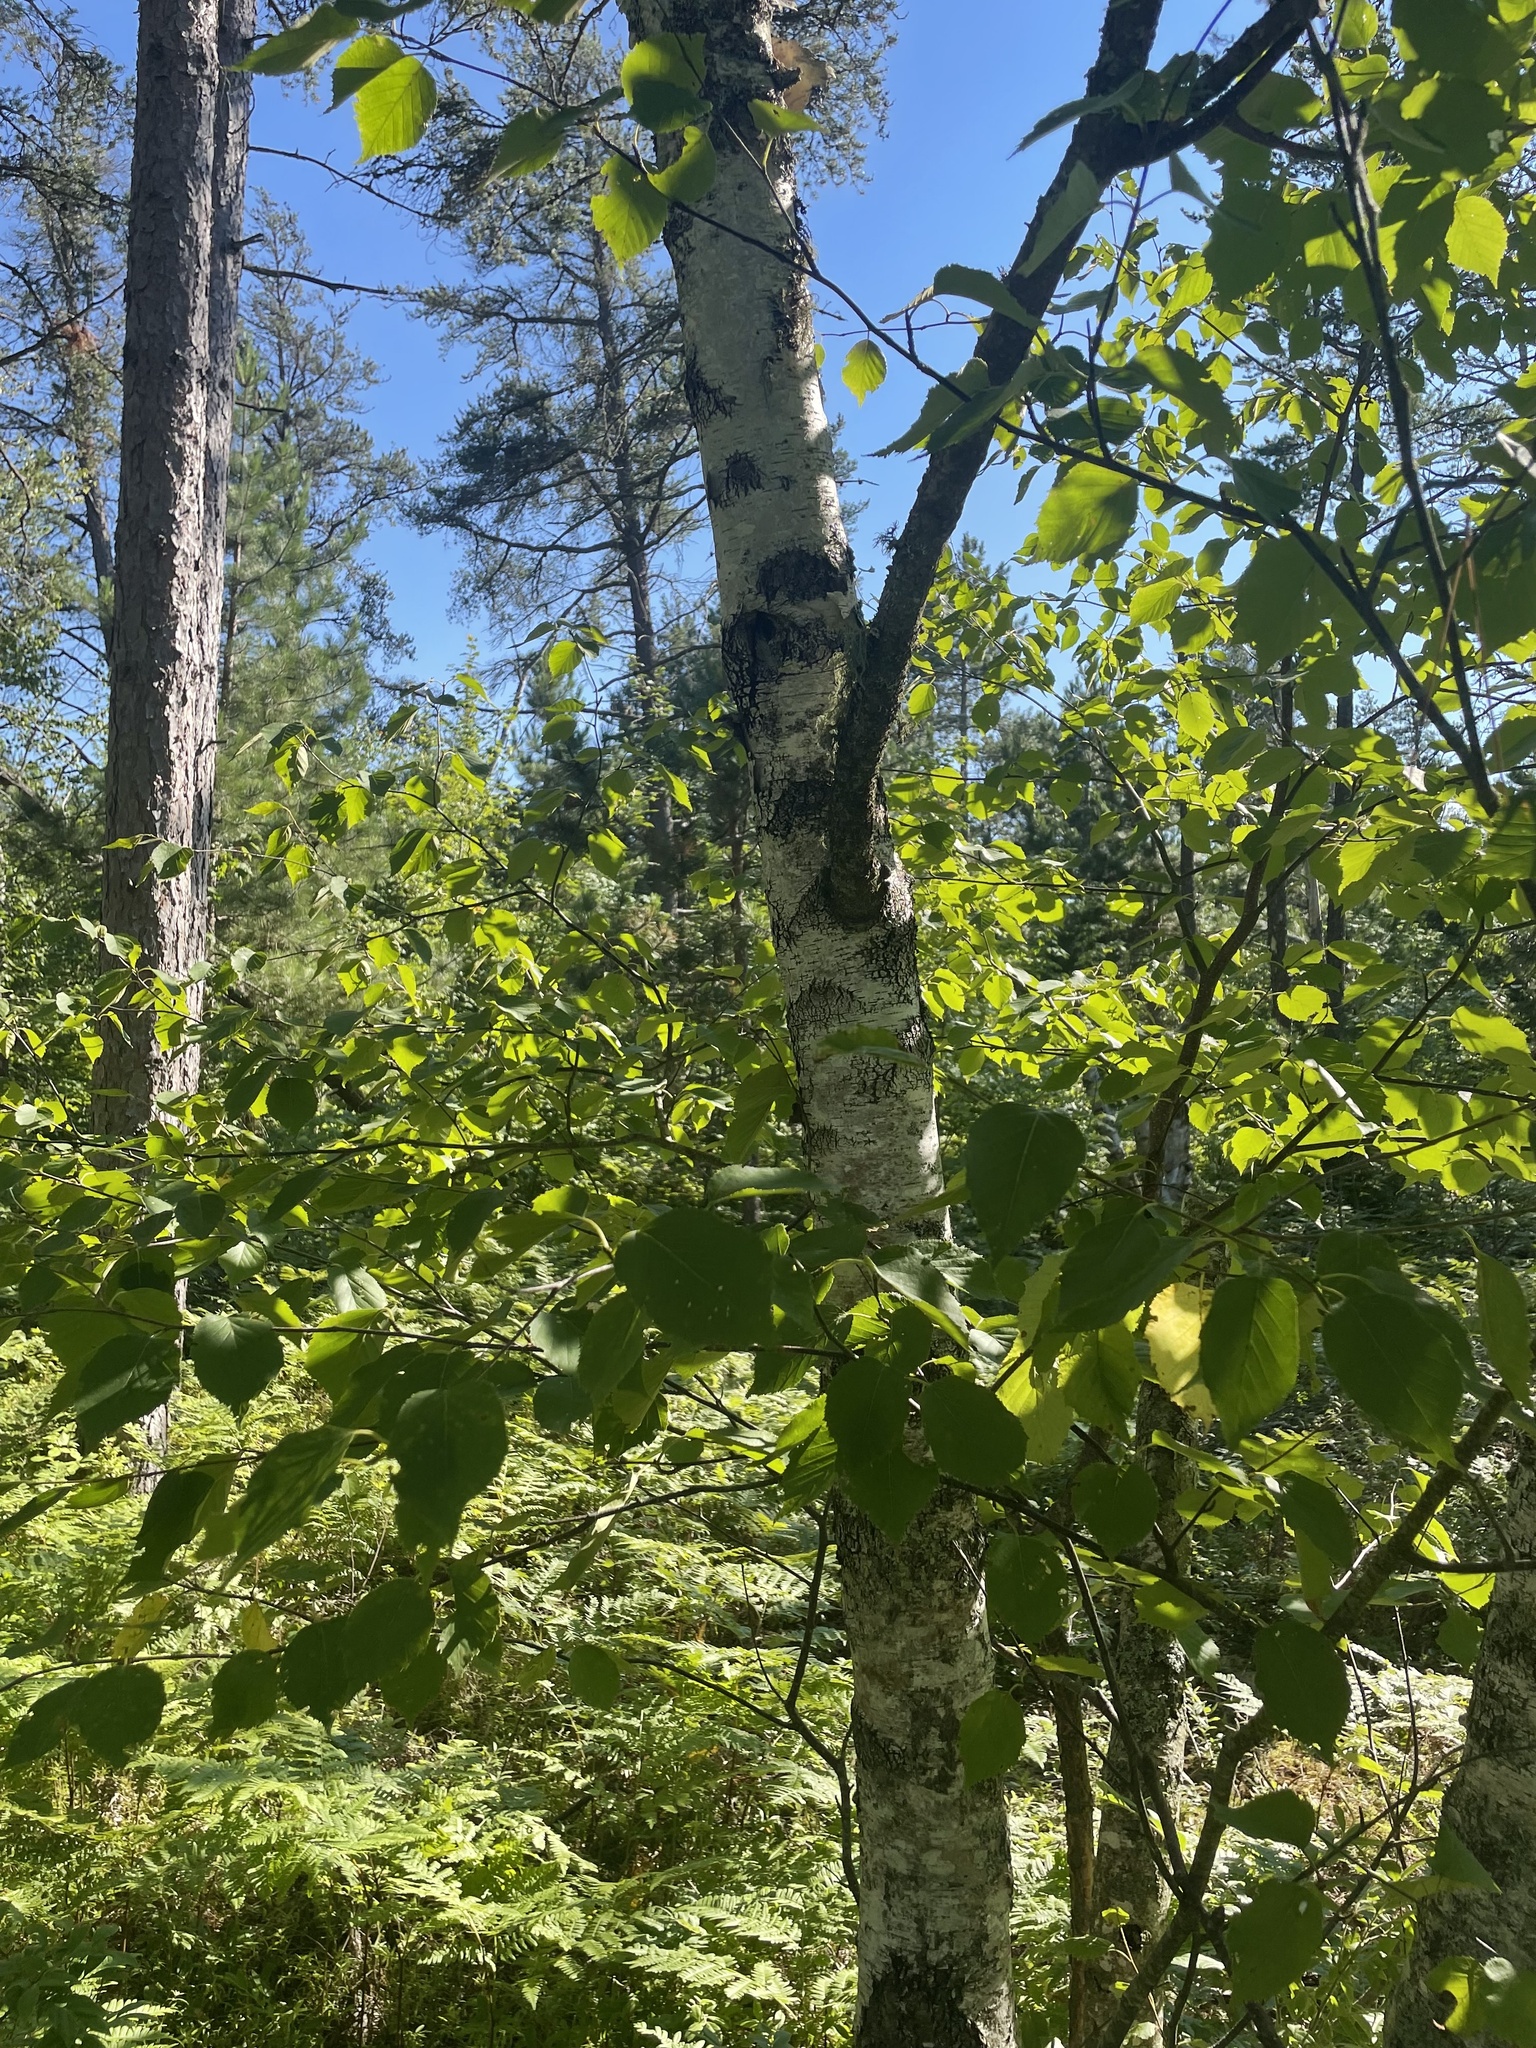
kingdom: Plantae
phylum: Tracheophyta
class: Magnoliopsida
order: Fagales
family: Betulaceae
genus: Betula
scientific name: Betula papyrifera
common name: Paper birch
